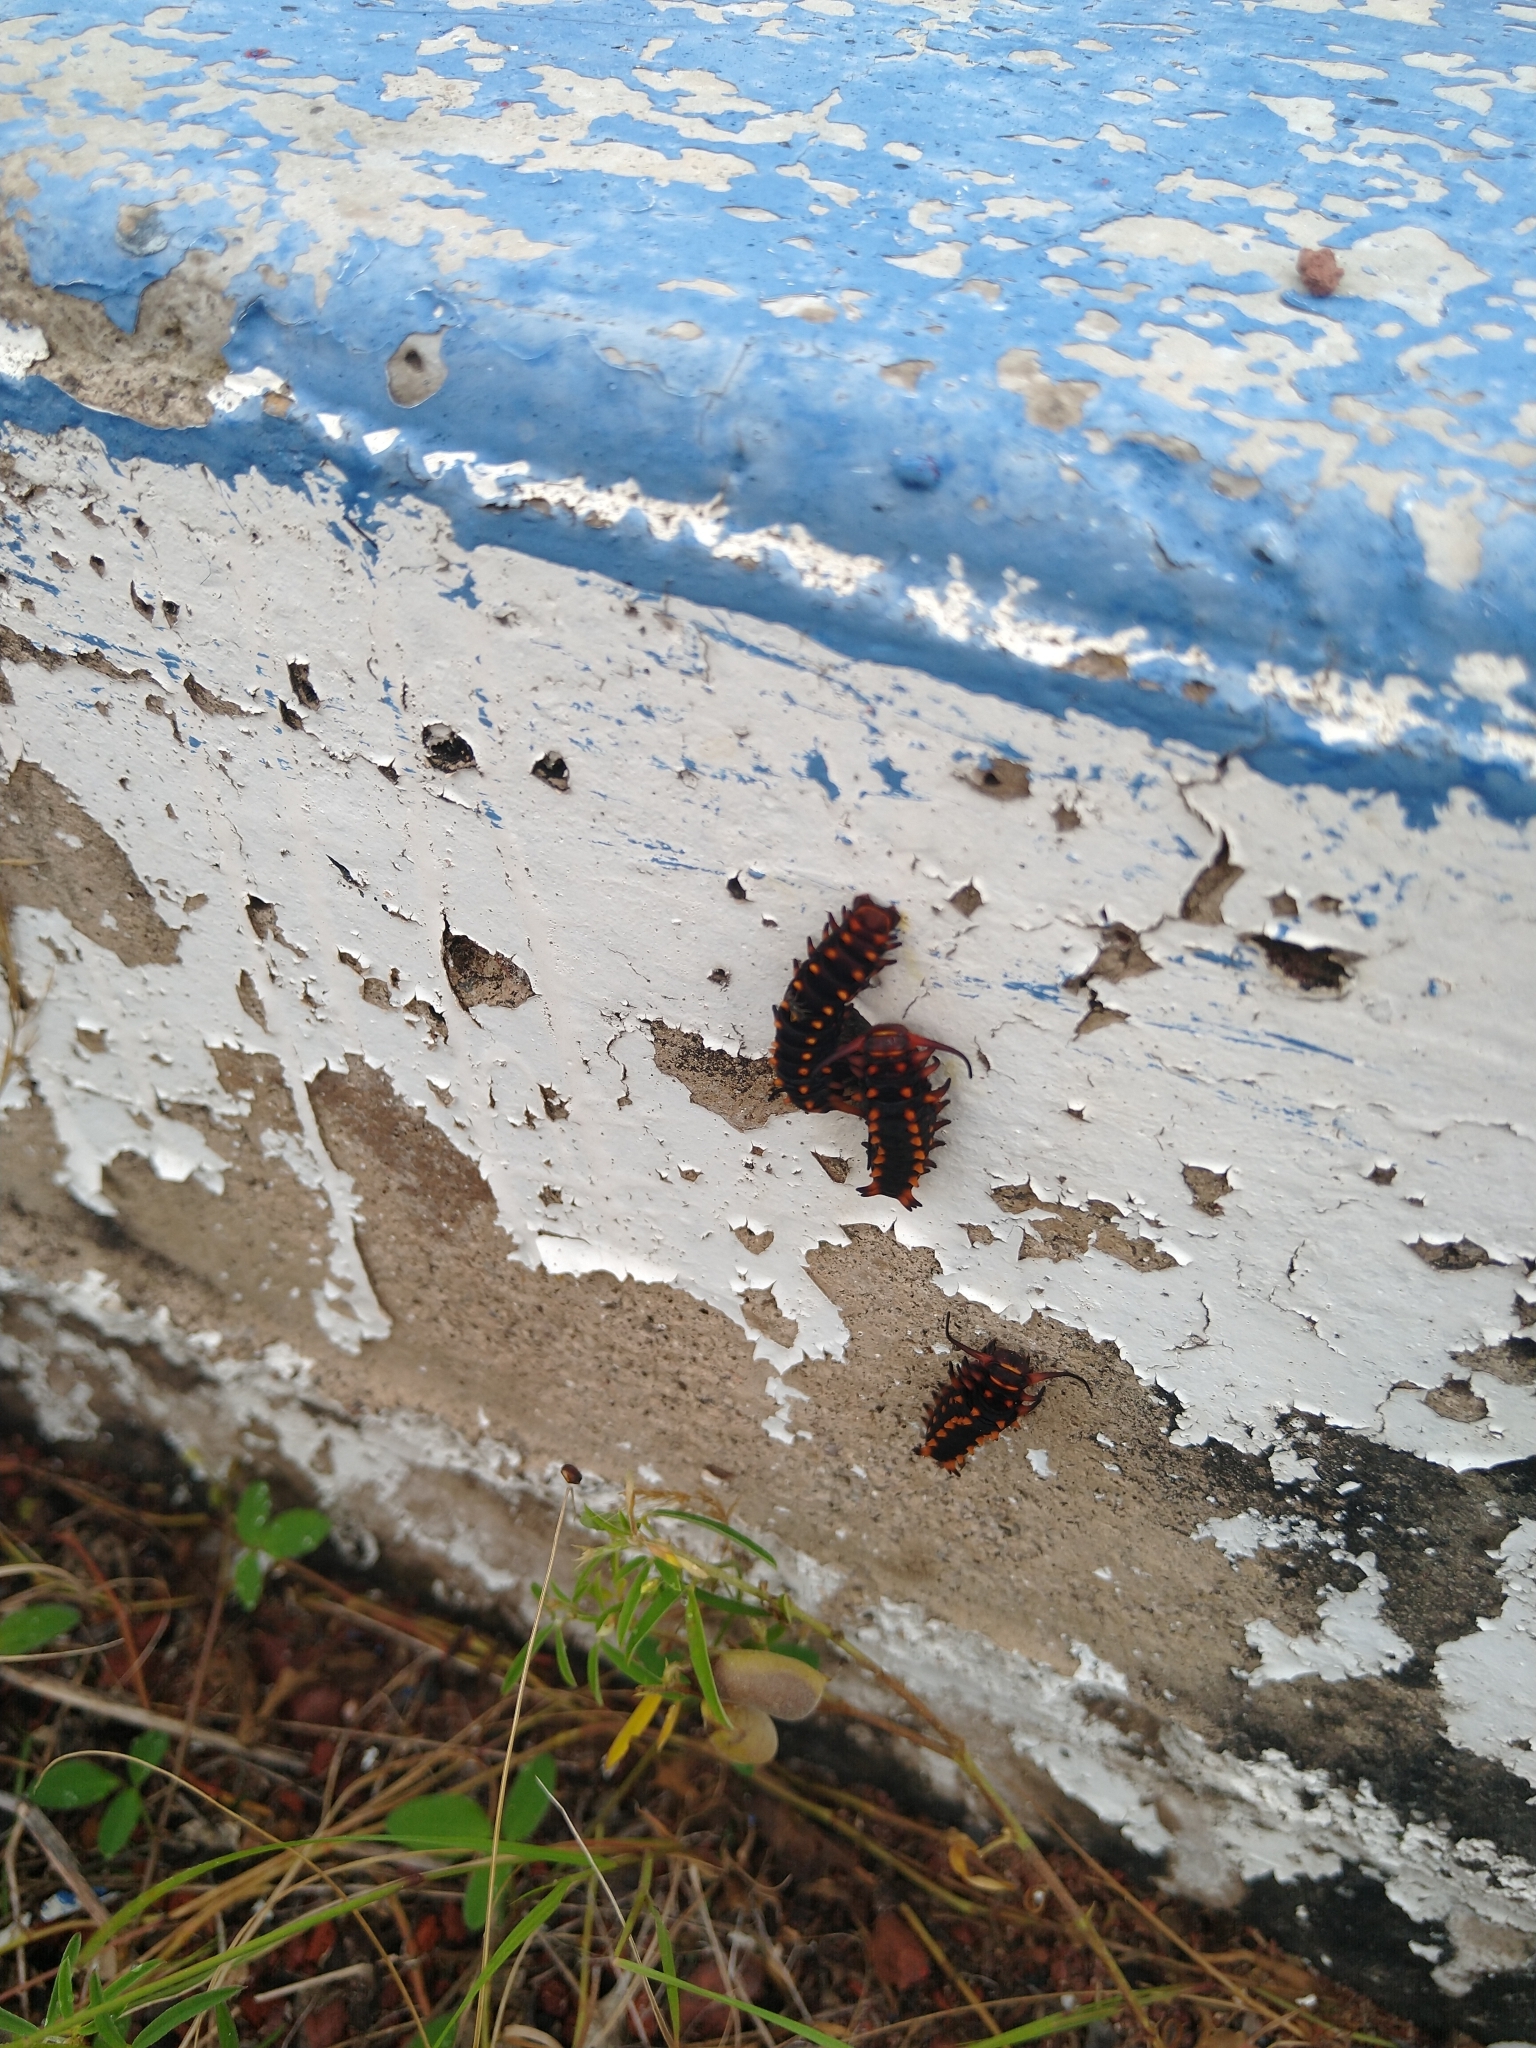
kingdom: Animalia
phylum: Arthropoda
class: Insecta
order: Lepidoptera
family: Papilionidae
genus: Battus
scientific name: Battus philenor
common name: Pipevine swallowtail
